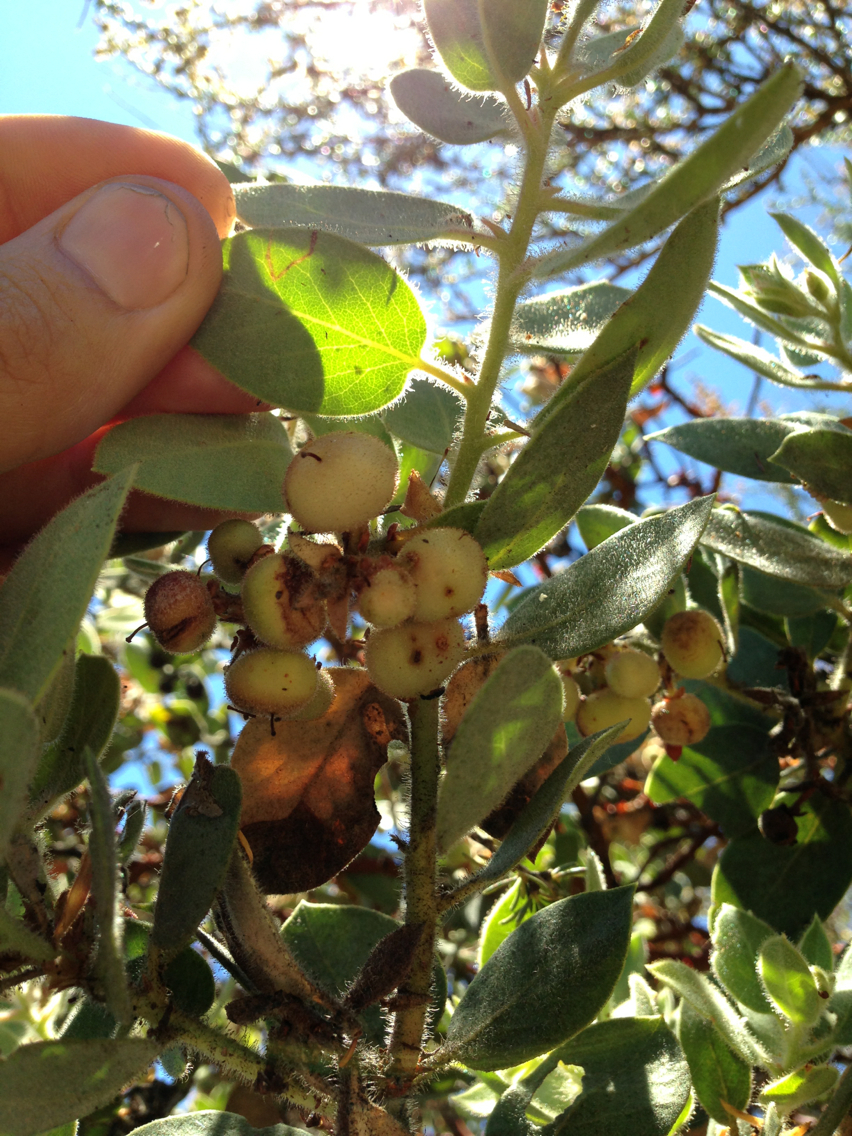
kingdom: Plantae
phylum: Tracheophyta
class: Magnoliopsida
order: Ericales
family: Ericaceae
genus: Arctostaphylos
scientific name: Arctostaphylos glandulosa
